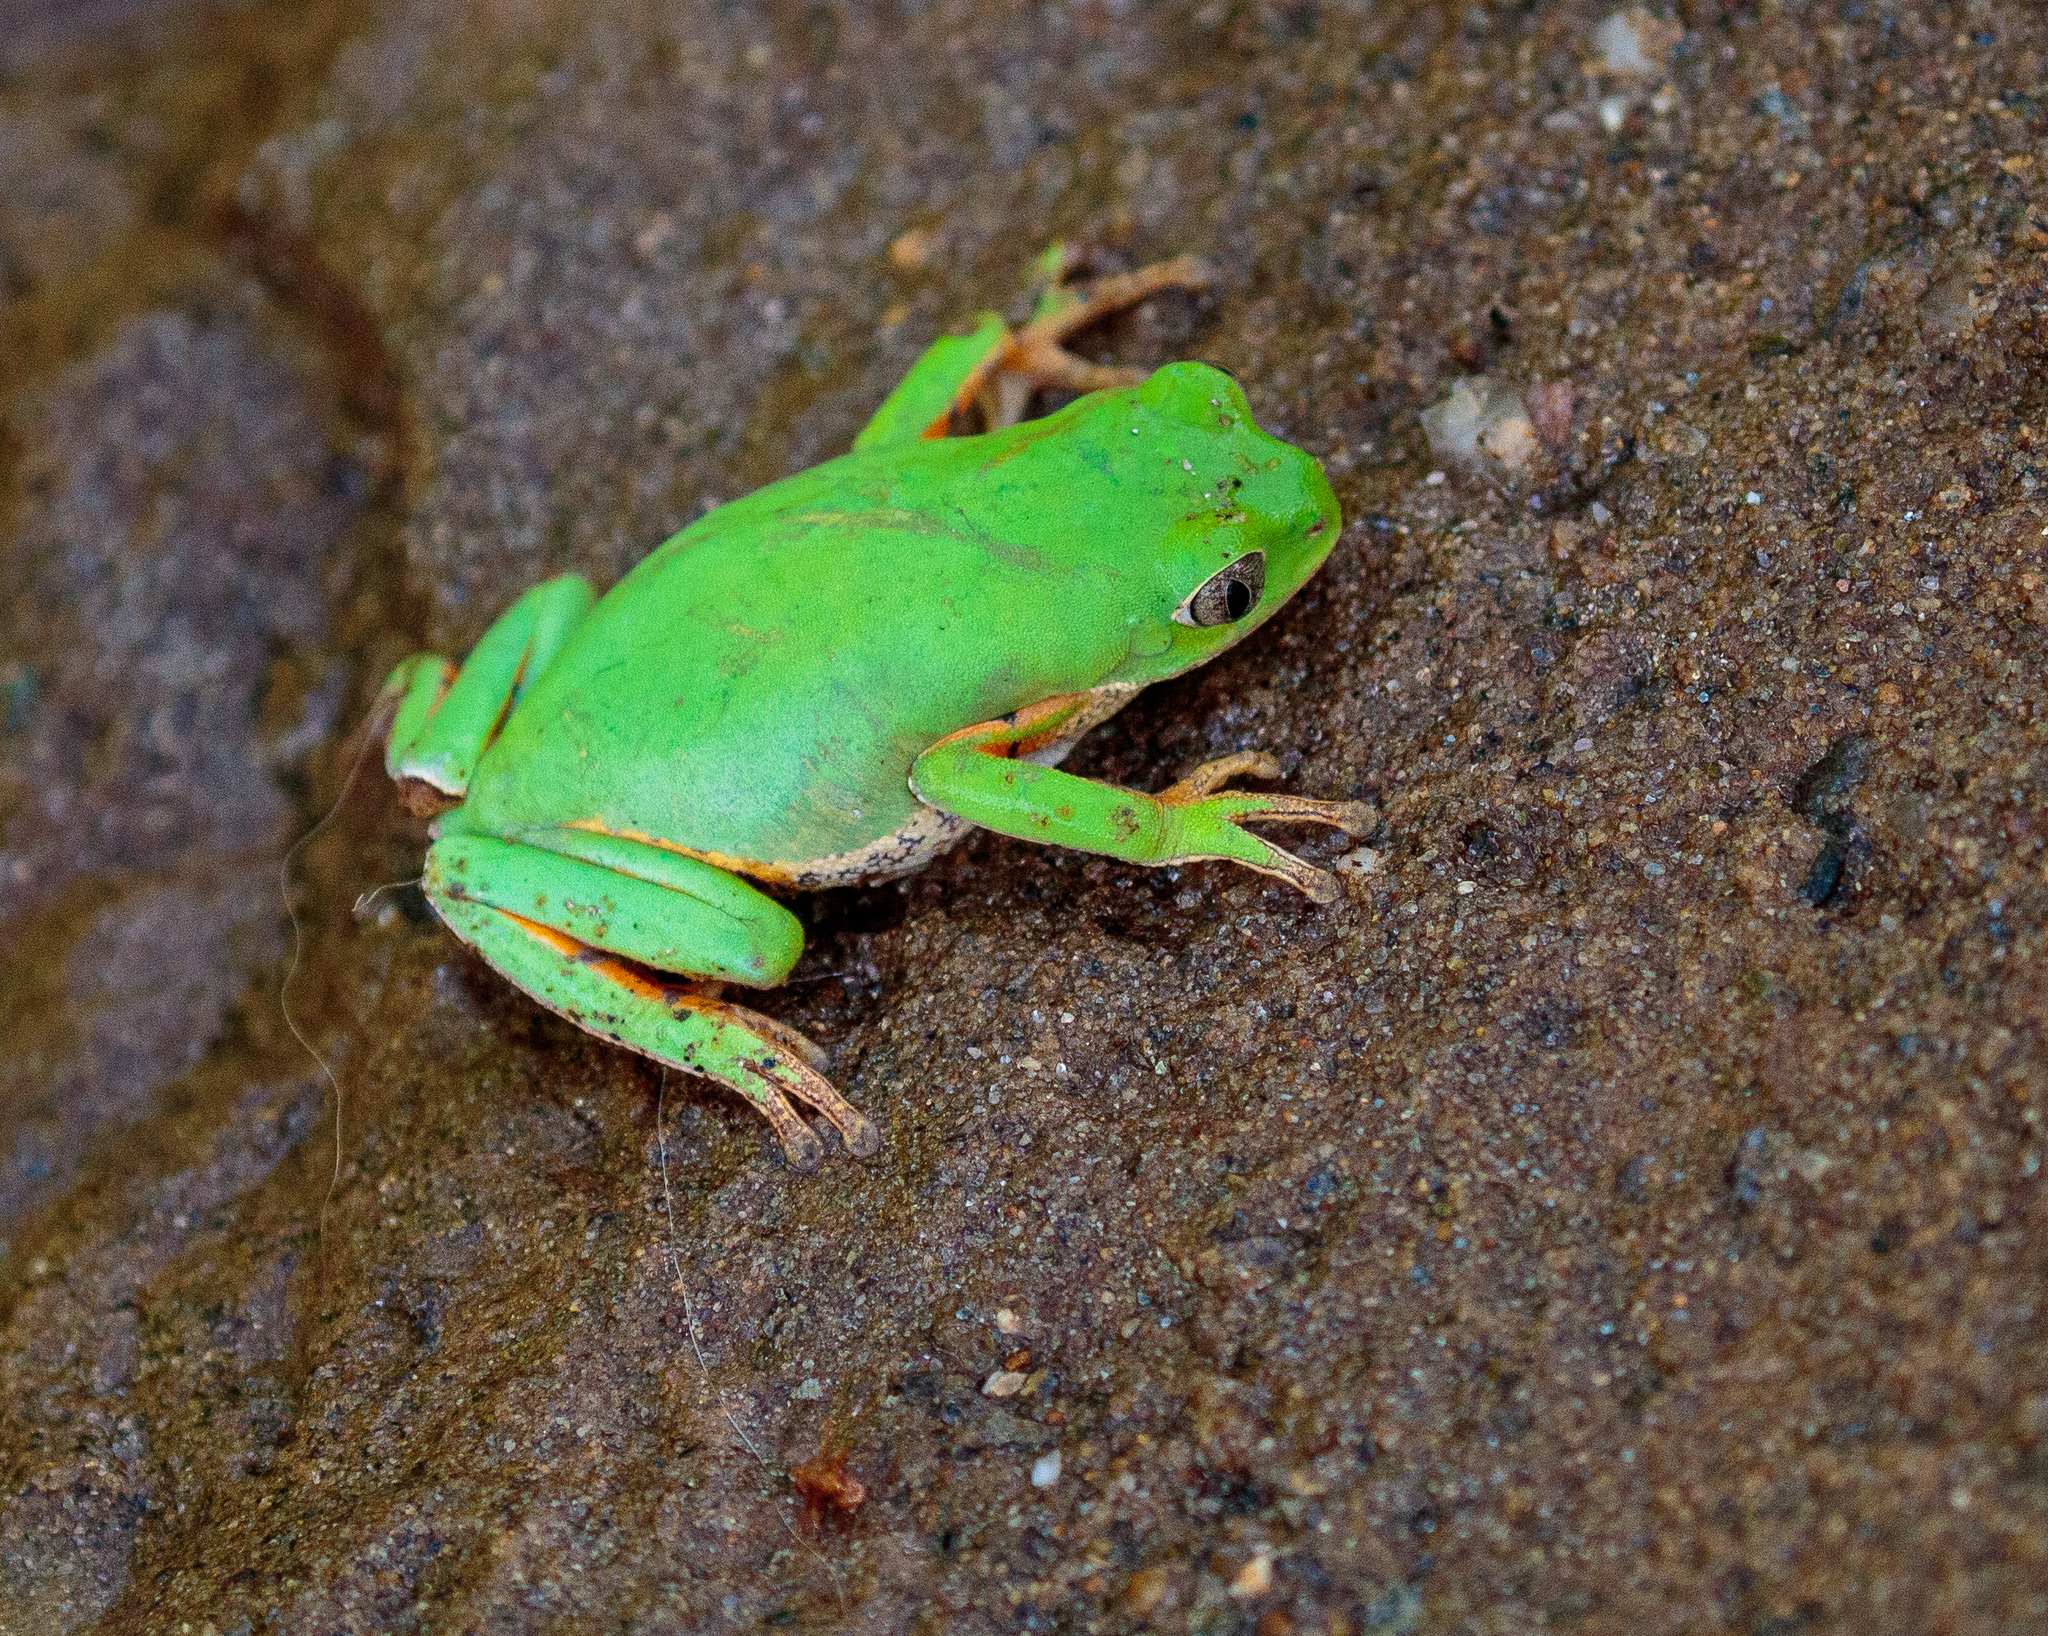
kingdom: Animalia
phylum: Chordata
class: Amphibia
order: Anura
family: Phyllomedusidae
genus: Pithecopus
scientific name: Pithecopus gonzagai
